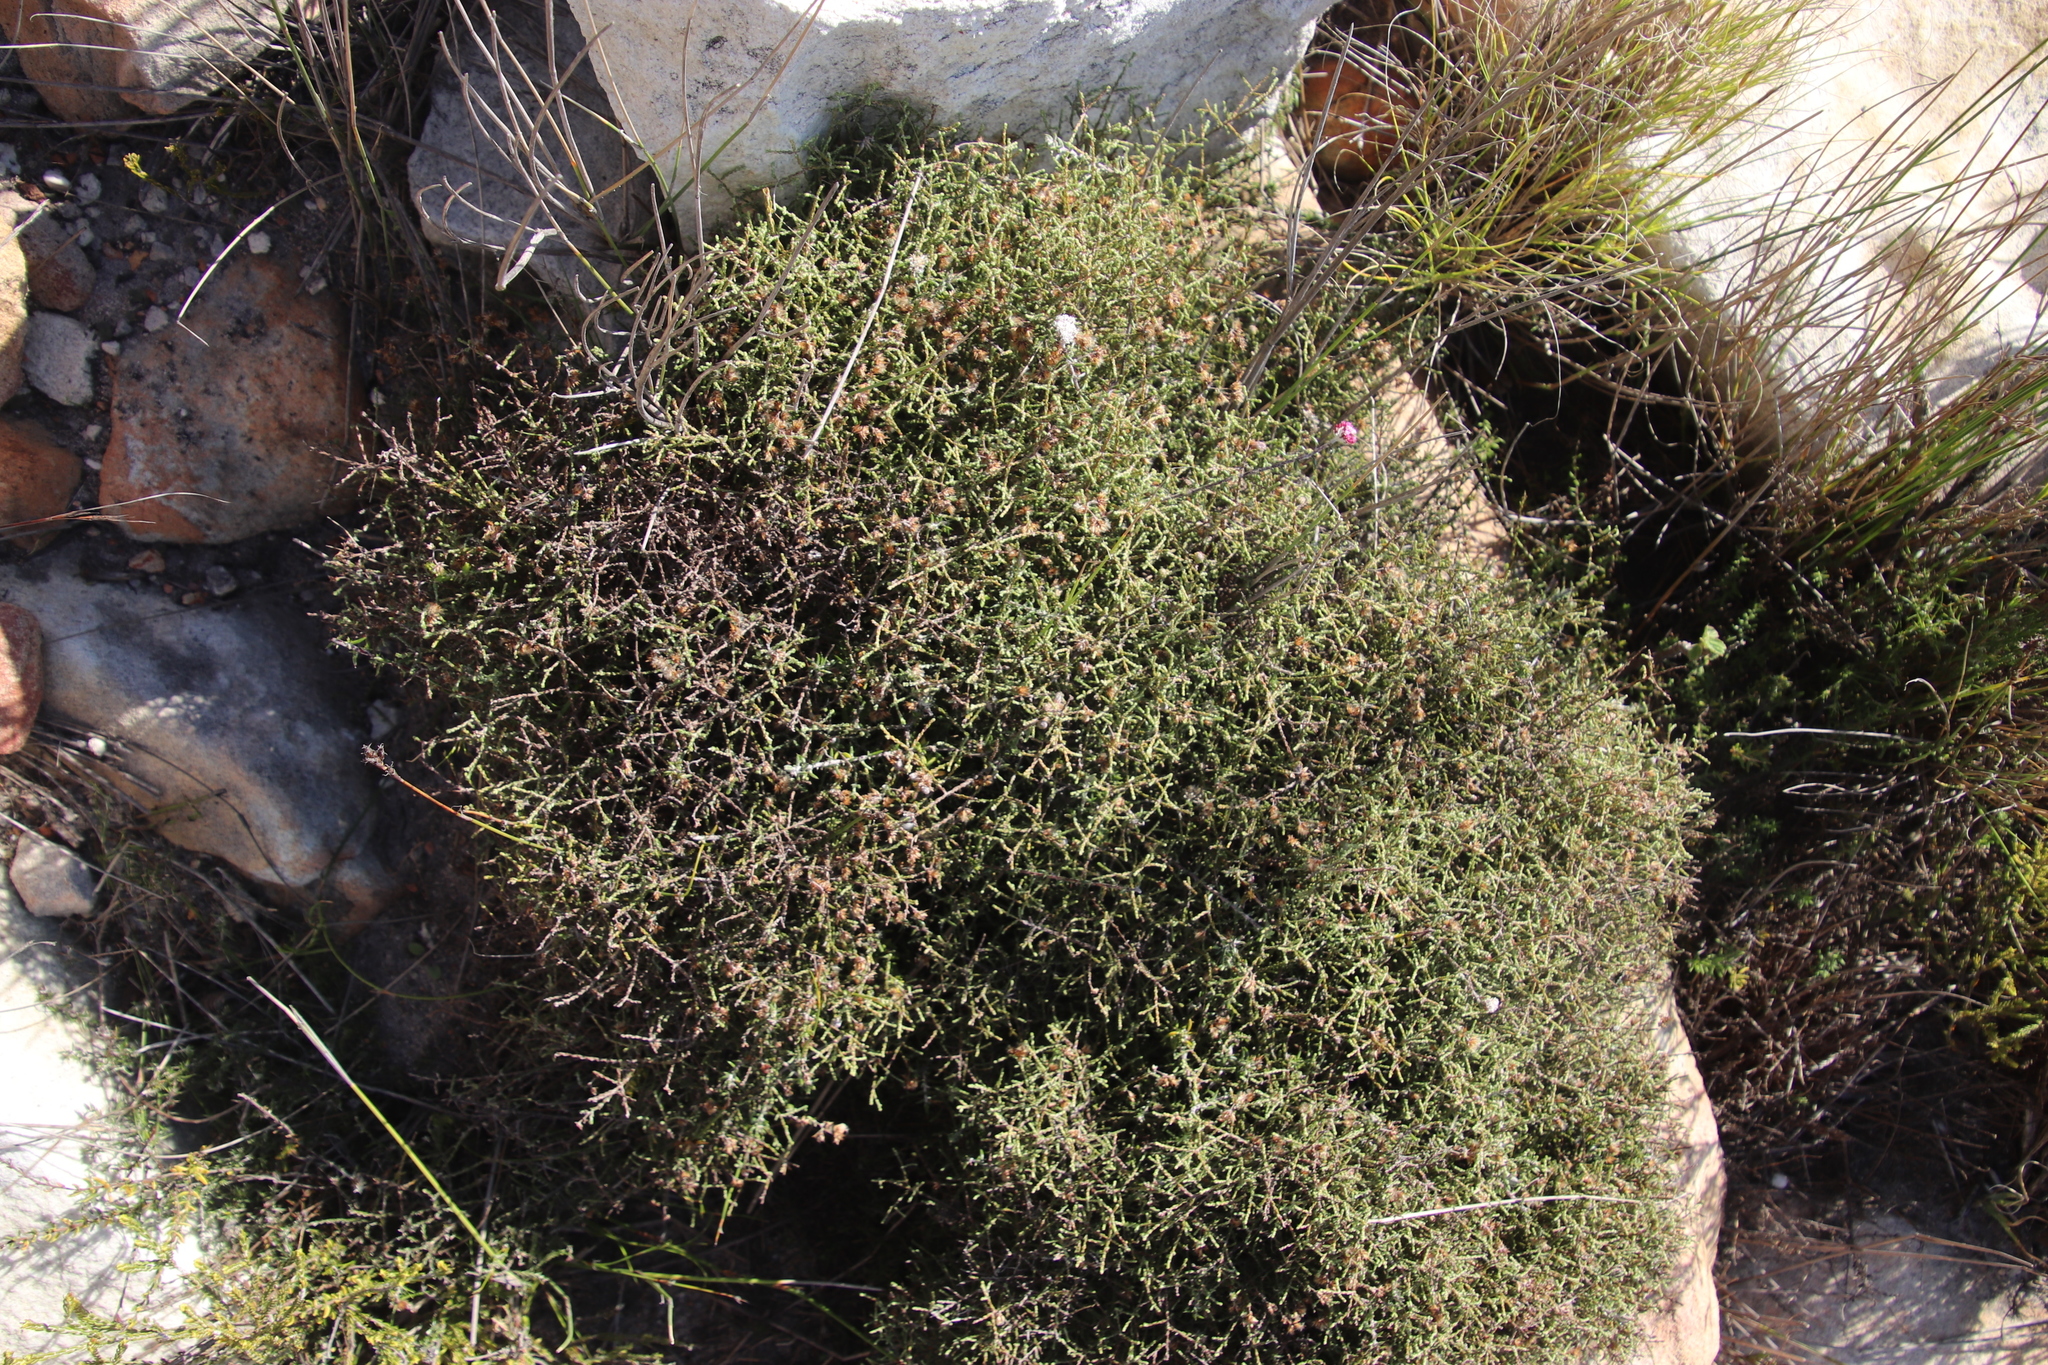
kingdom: Plantae
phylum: Tracheophyta
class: Magnoliopsida
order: Asterales
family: Asteraceae
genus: Myrovernix
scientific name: Myrovernix scaber
